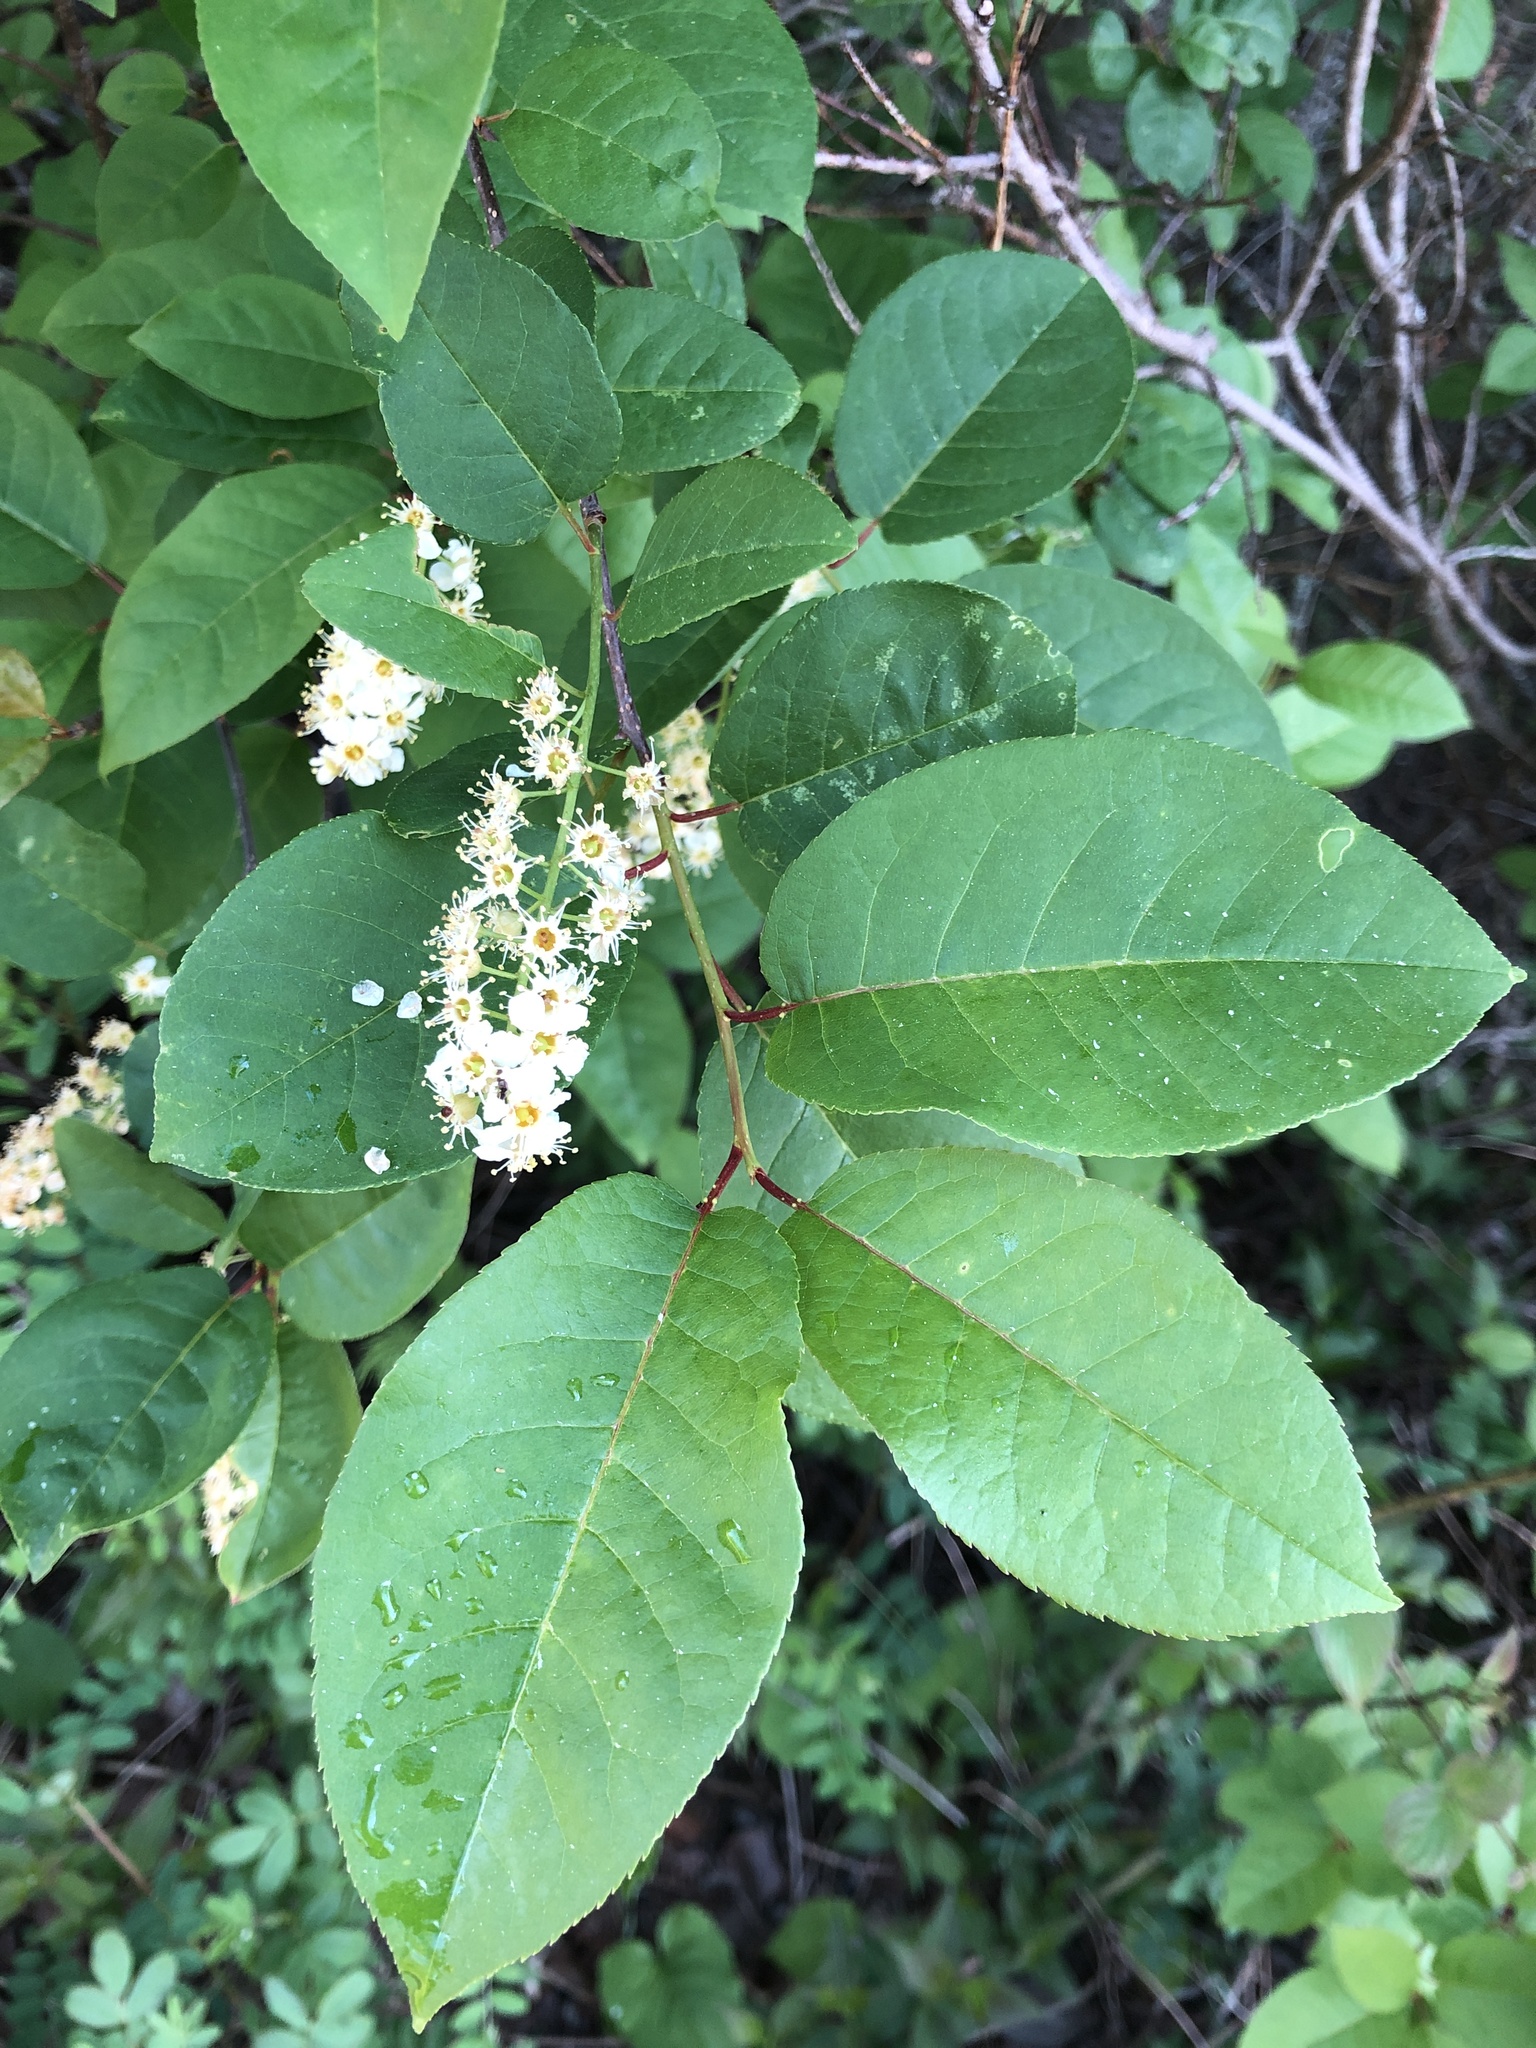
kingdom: Plantae
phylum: Tracheophyta
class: Magnoliopsida
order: Rosales
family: Rosaceae
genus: Prunus
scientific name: Prunus virginiana
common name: Chokecherry
